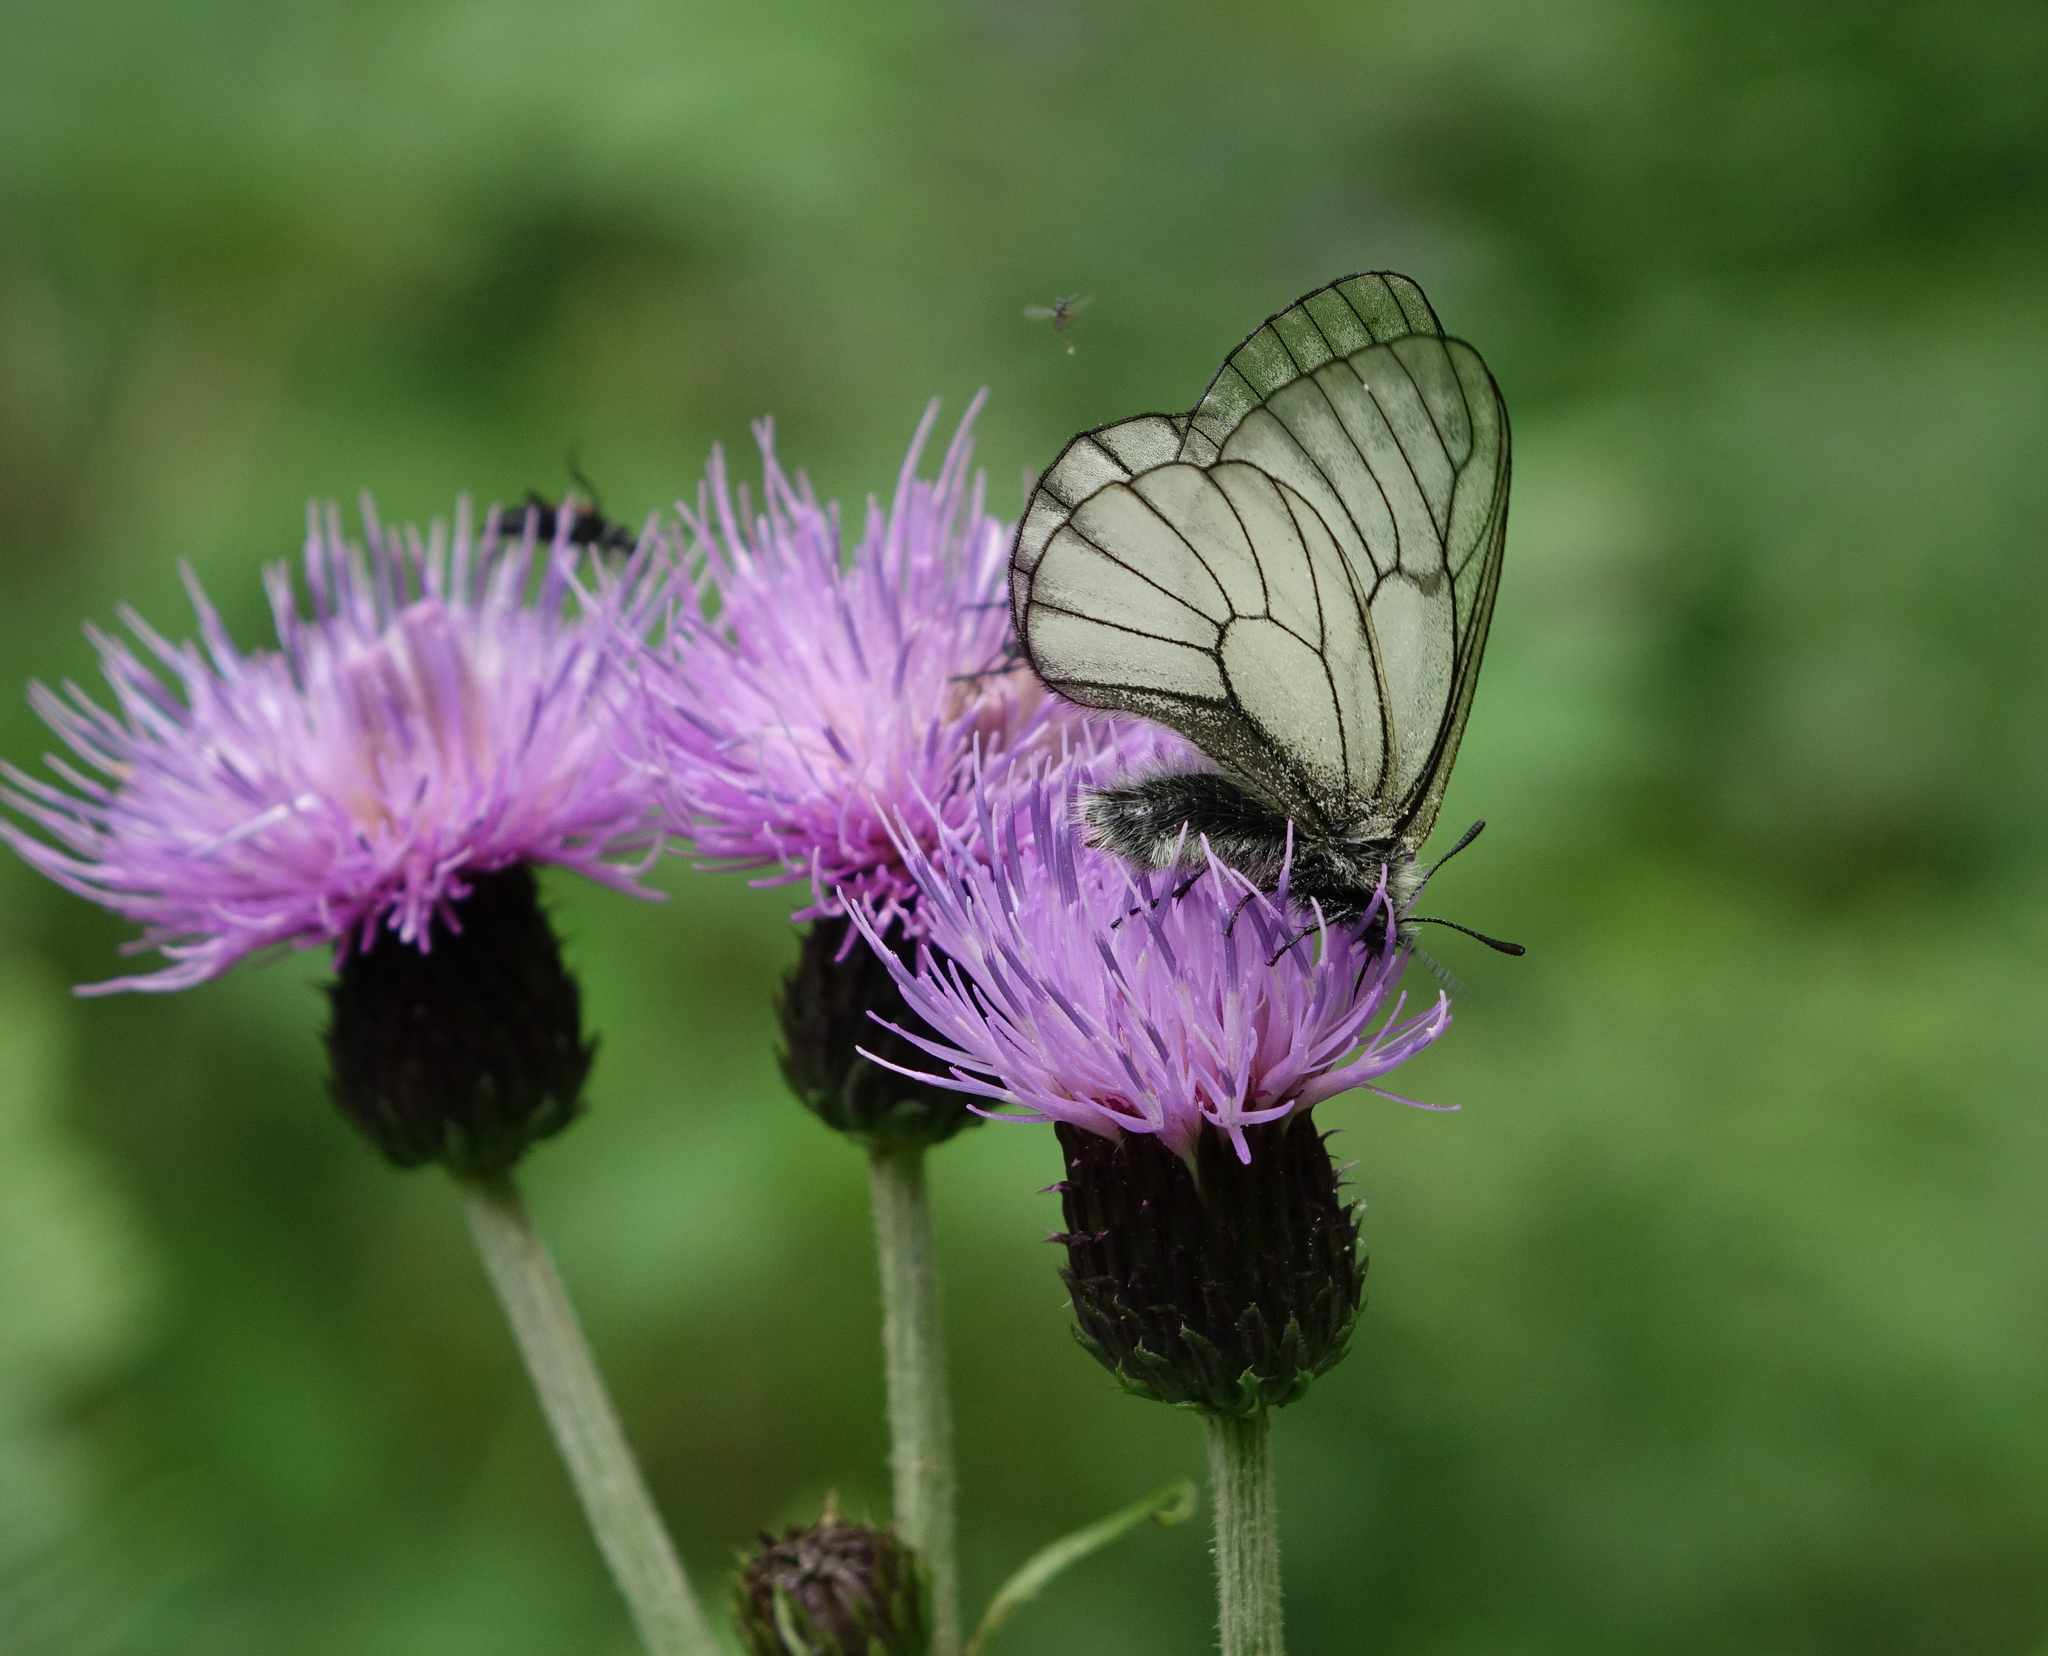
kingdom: Plantae
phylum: Tracheophyta
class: Magnoliopsida
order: Asterales
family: Asteraceae
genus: Cirsium
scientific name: Cirsium helenioides
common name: Melancholy thistle
